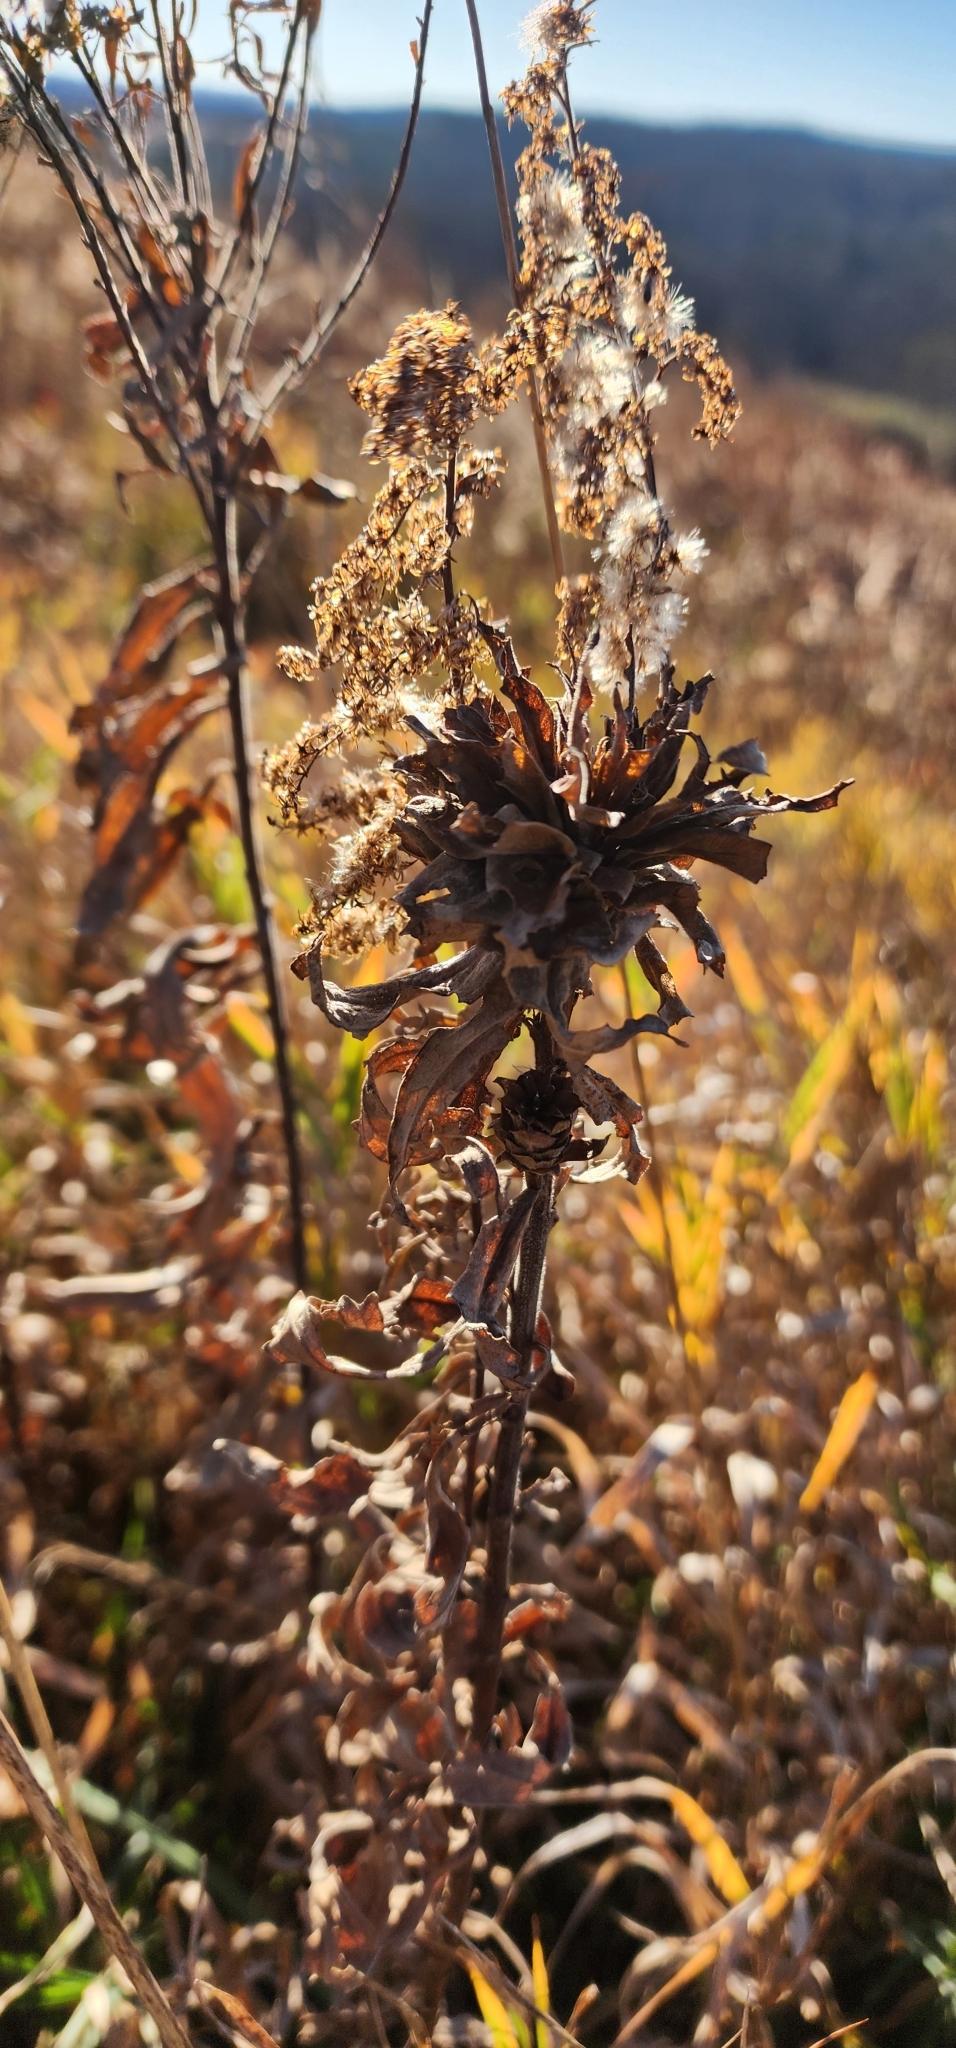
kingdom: Animalia
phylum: Arthropoda
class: Insecta
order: Diptera
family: Cecidomyiidae
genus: Rhopalomyia
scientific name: Rhopalomyia solidaginis
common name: Goldenrod bunch gall midge
